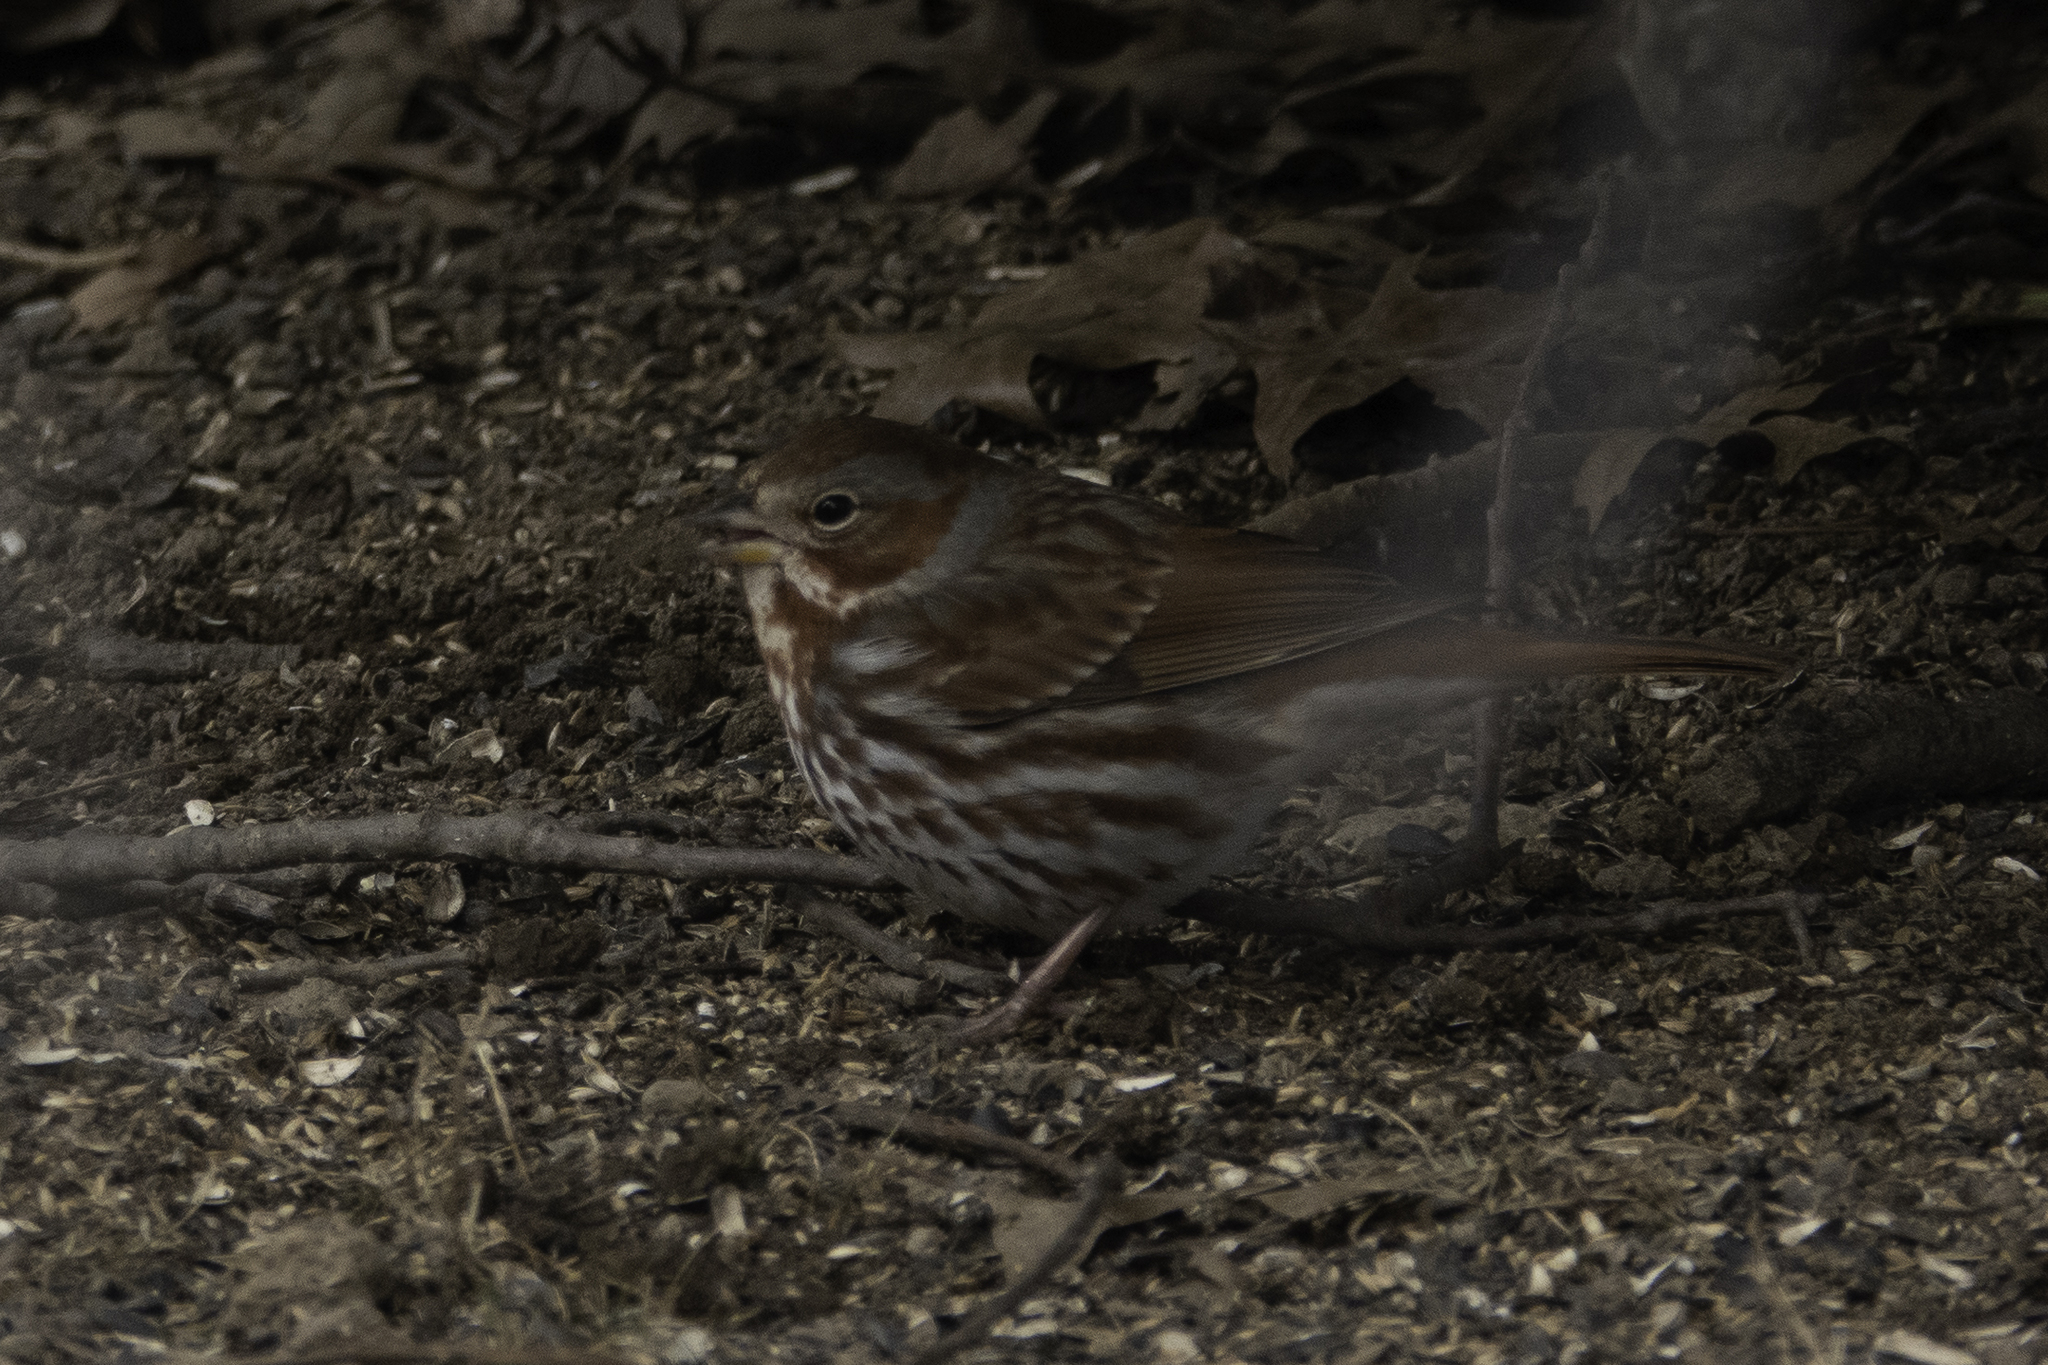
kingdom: Animalia
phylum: Chordata
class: Aves
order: Passeriformes
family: Passerellidae
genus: Passerella
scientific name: Passerella iliaca
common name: Fox sparrow
